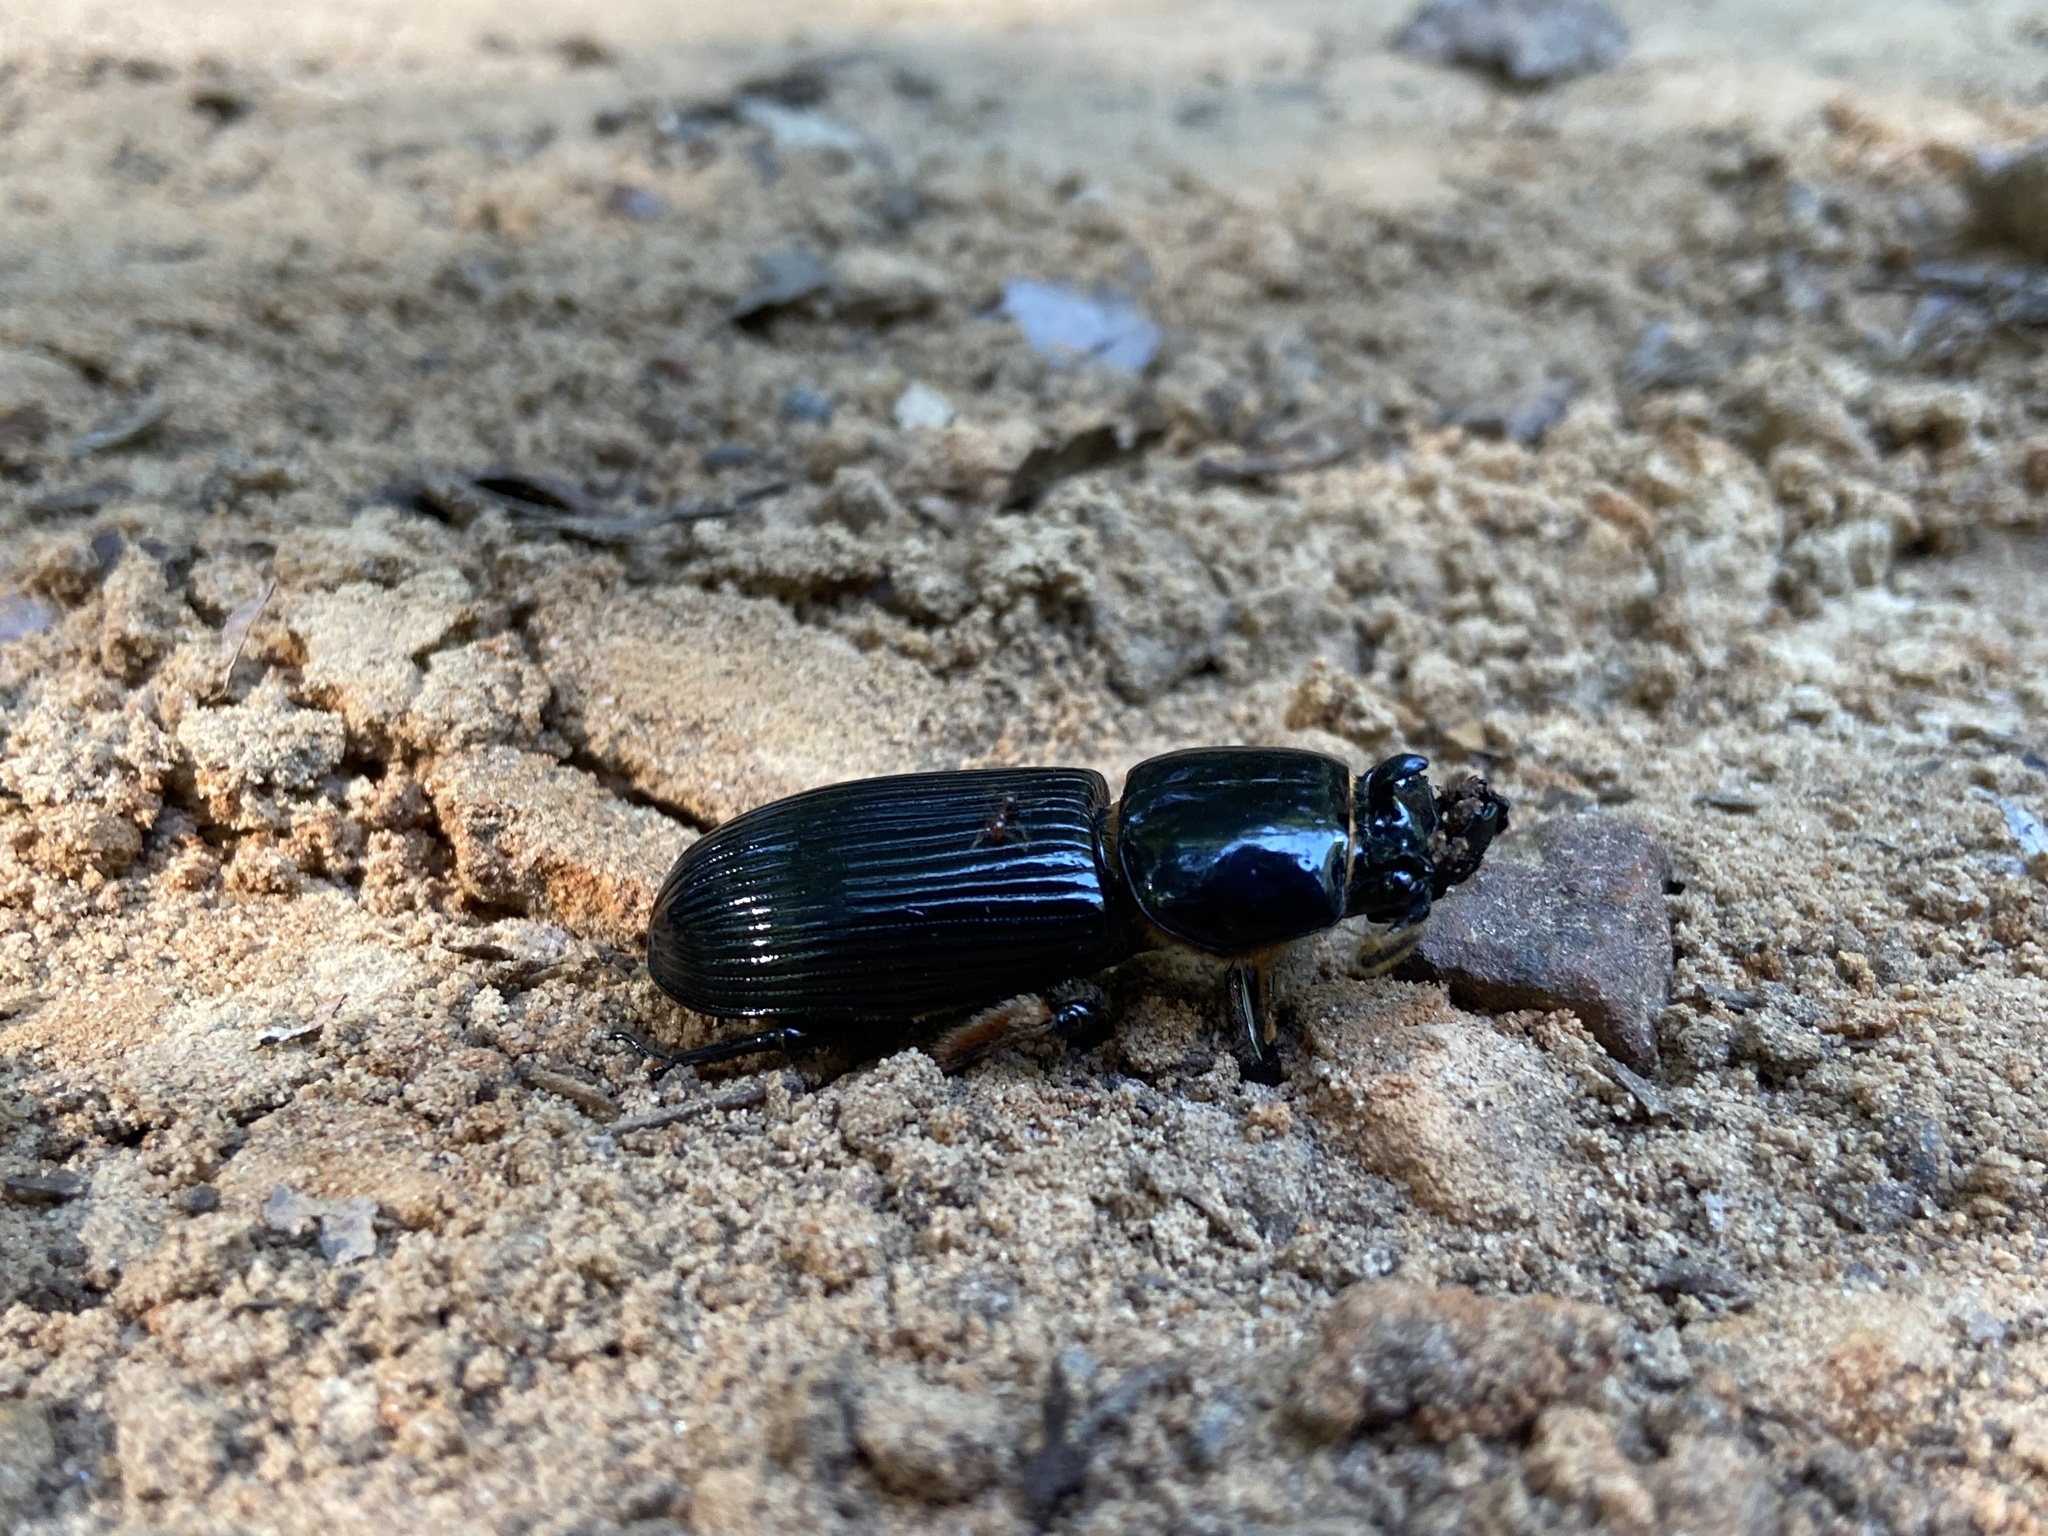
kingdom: Animalia
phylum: Arthropoda
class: Insecta
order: Coleoptera
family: Passalidae
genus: Odontotaenius
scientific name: Odontotaenius disjunctus
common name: Patent leather beetle
